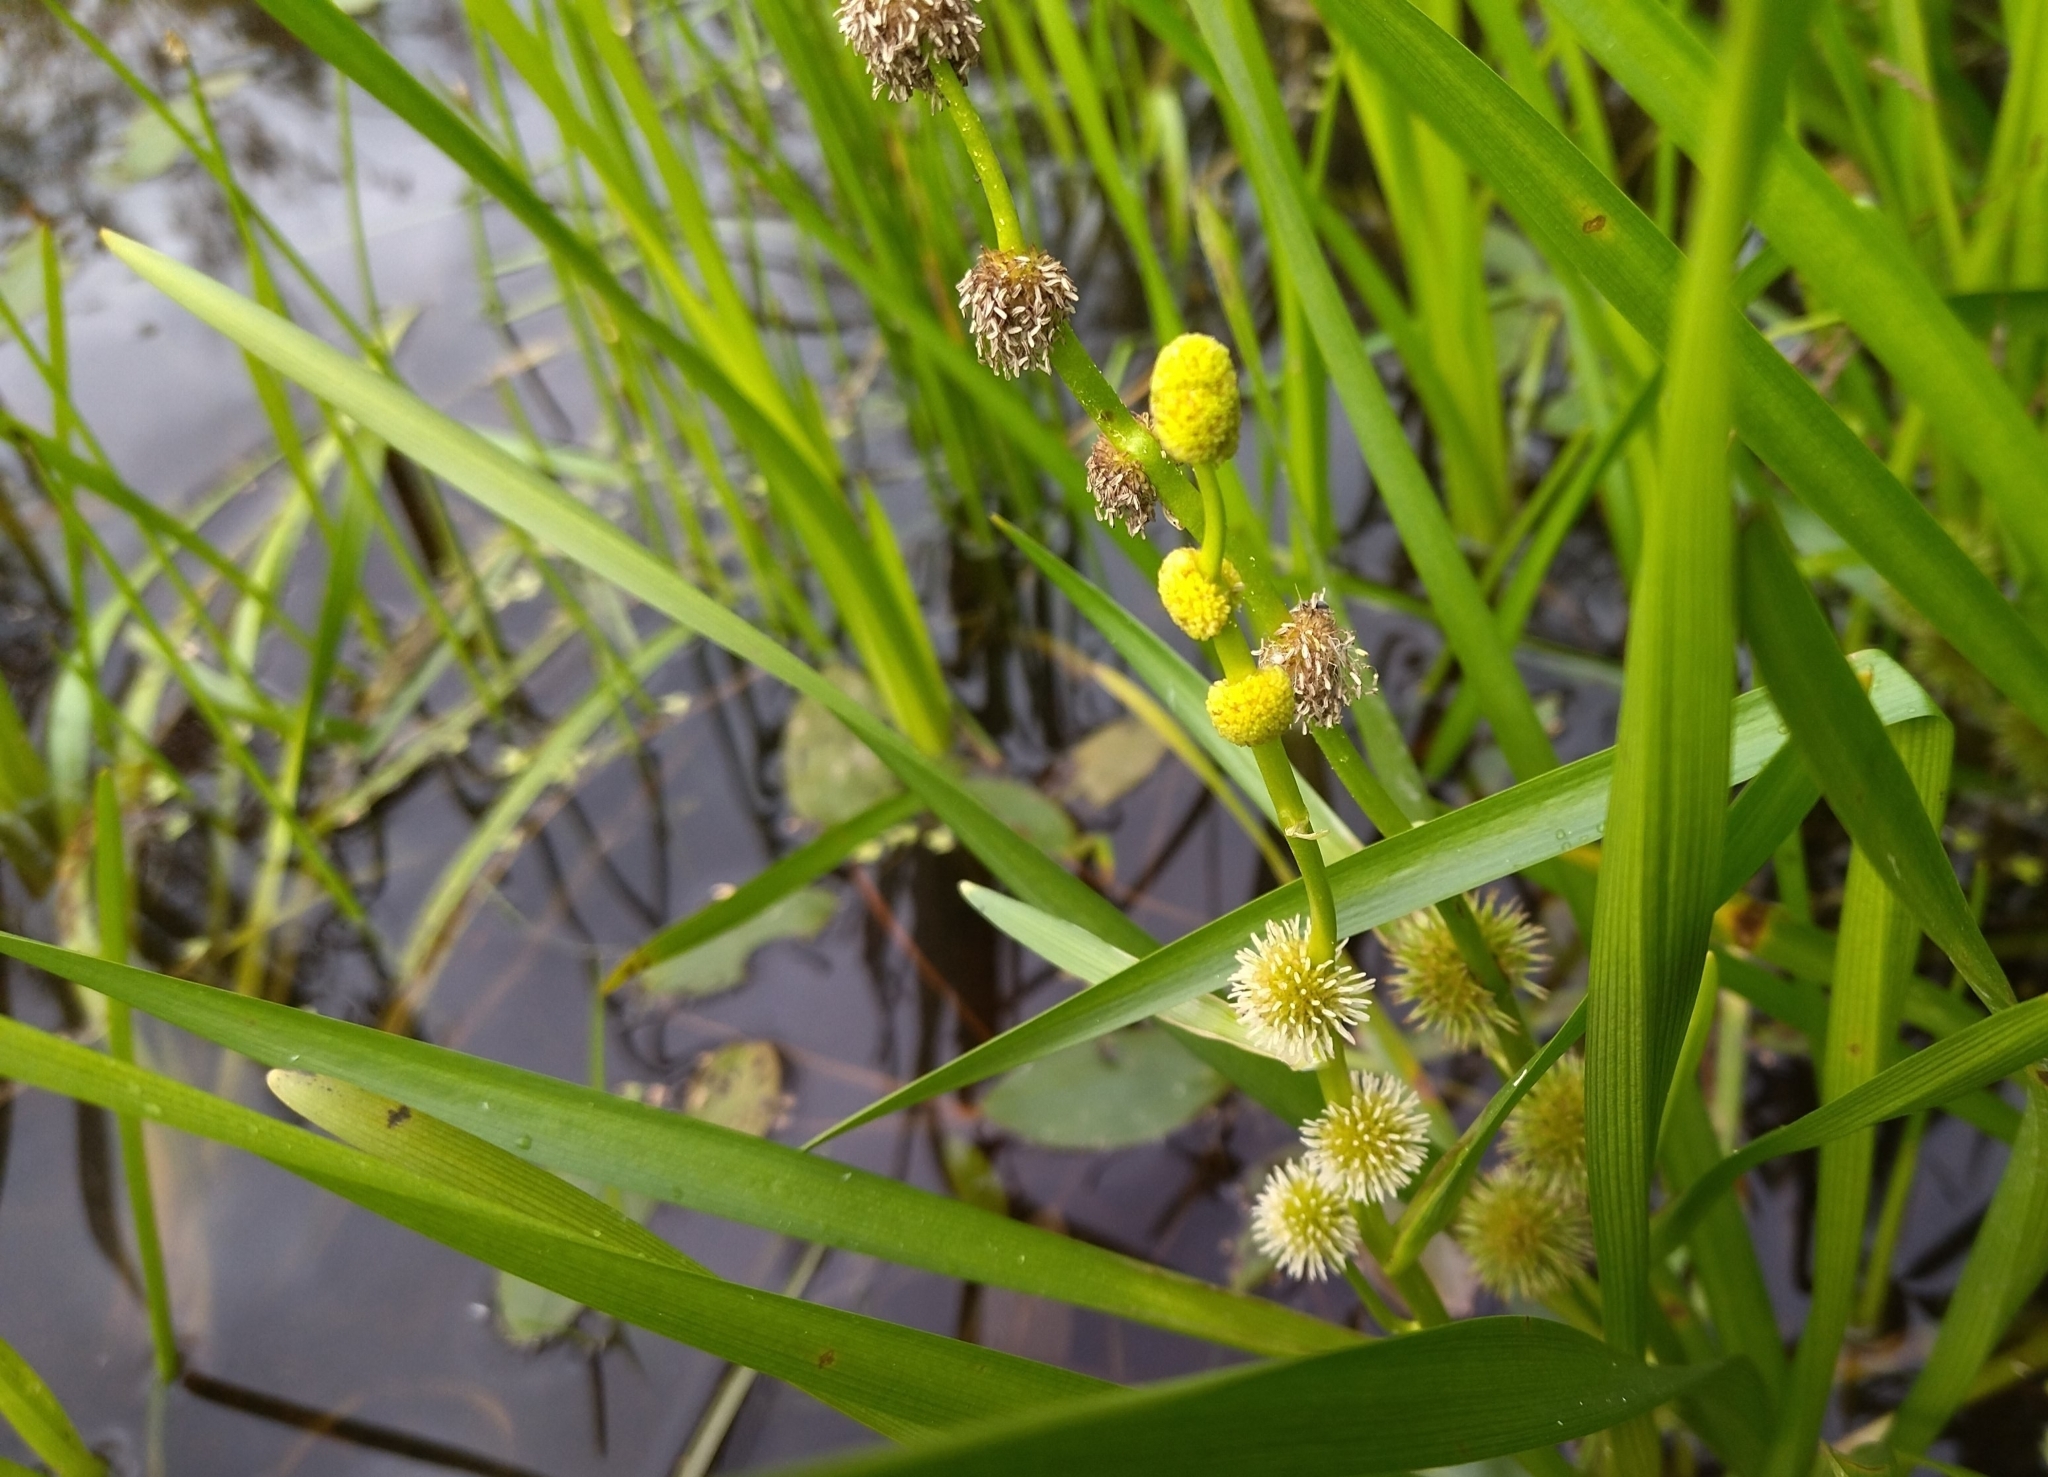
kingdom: Plantae
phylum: Tracheophyta
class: Liliopsida
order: Poales
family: Typhaceae
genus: Sparganium
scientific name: Sparganium emersum
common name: Unbranched bur-reed
